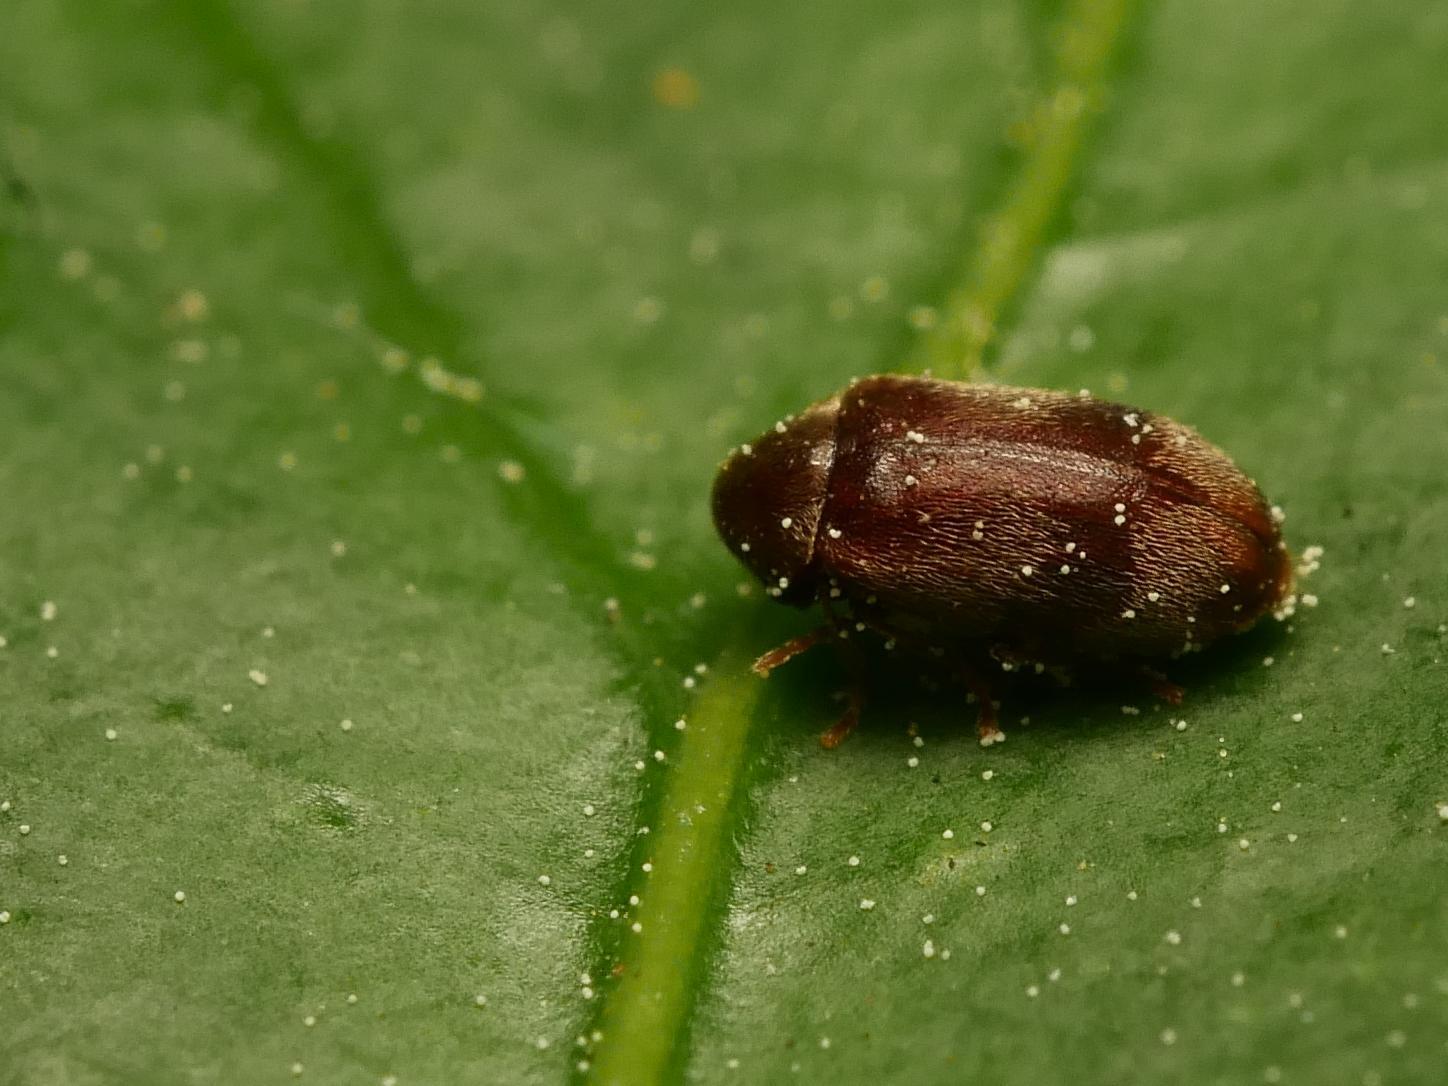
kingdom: Animalia
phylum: Arthropoda
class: Insecta
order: Coleoptera
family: Ptinidae
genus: Ochina
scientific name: Ochina ptinoides
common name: Ivy boring beetle
